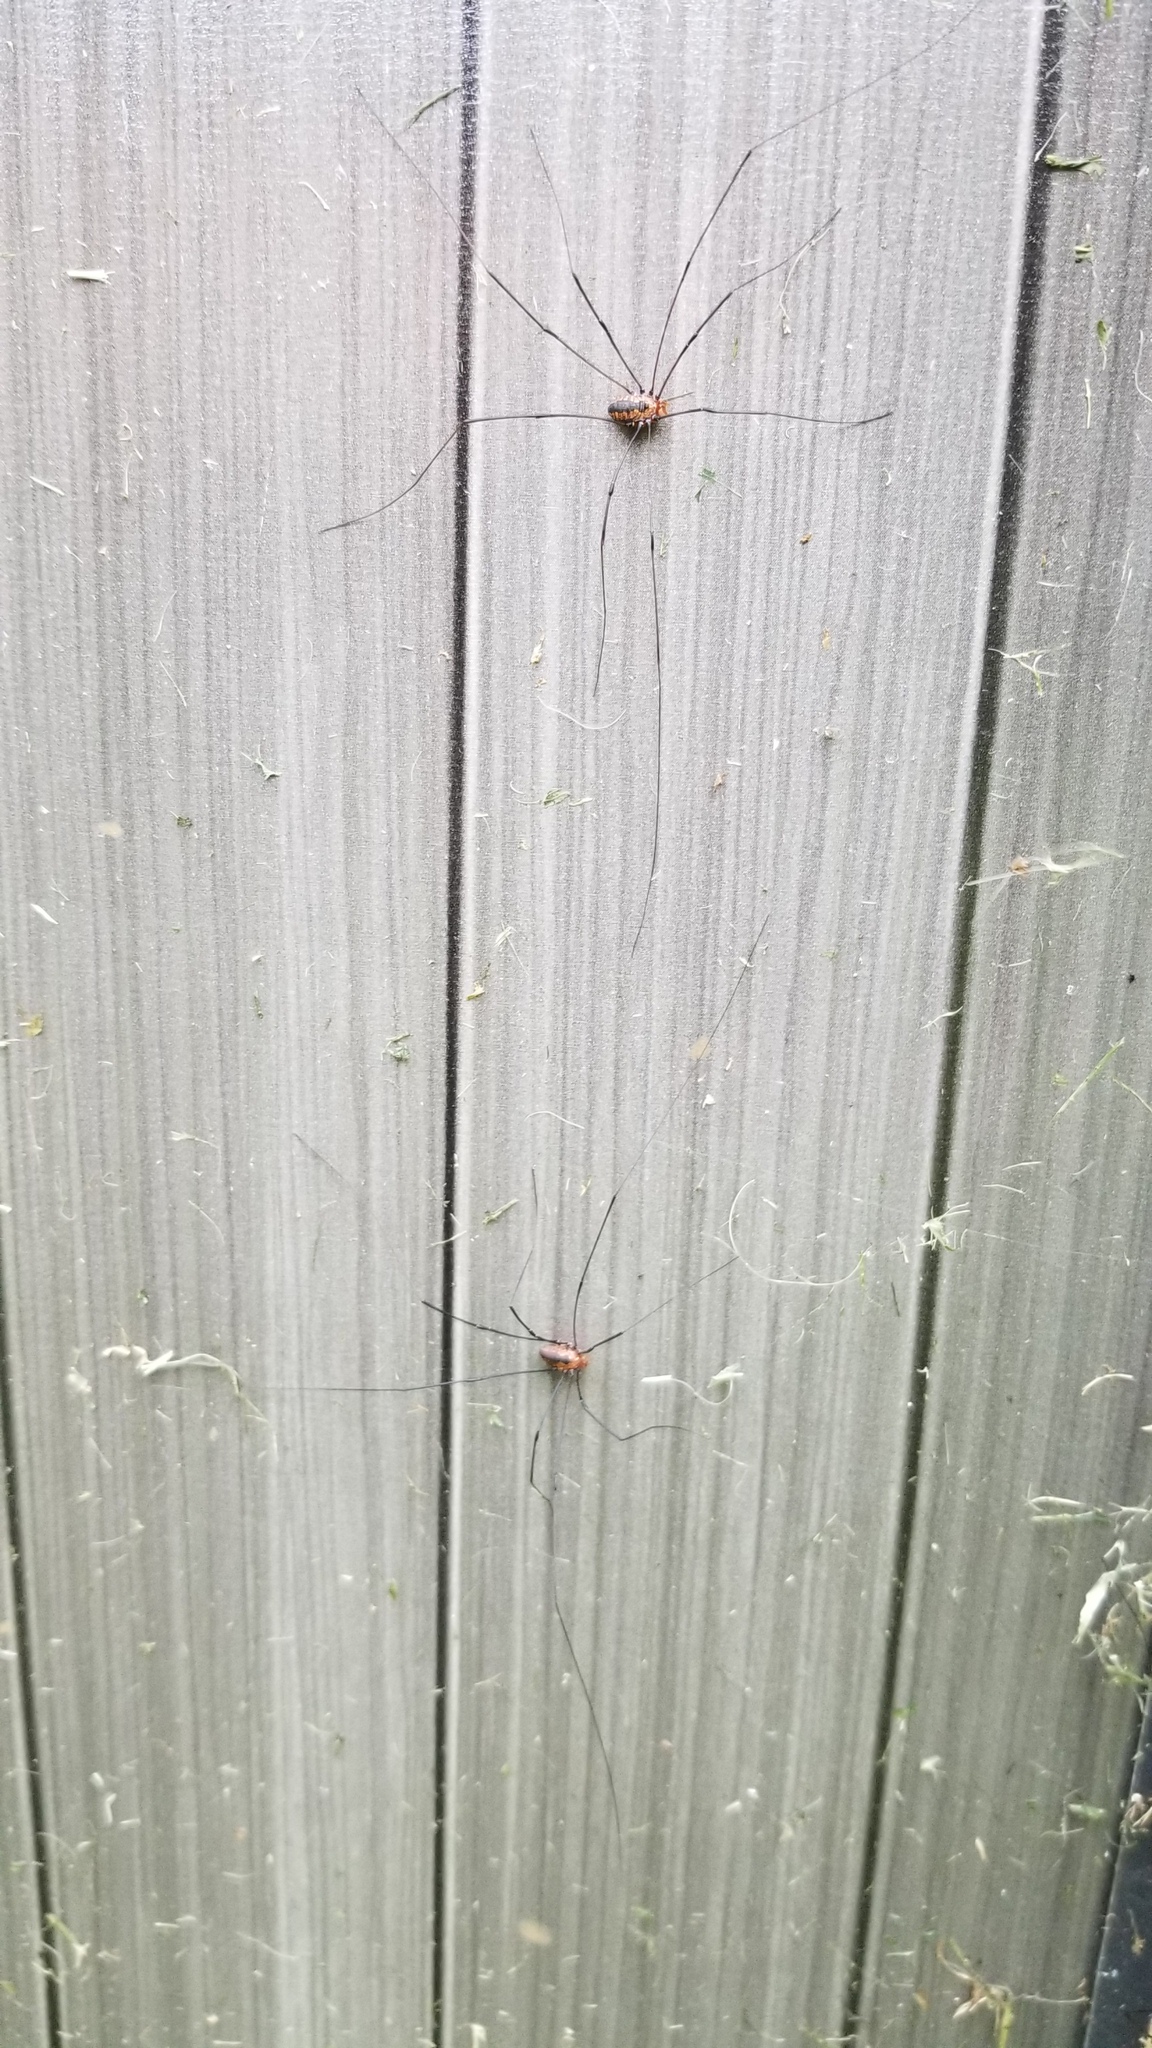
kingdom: Animalia
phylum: Arthropoda
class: Arachnida
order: Opiliones
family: Sclerosomatidae
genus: Leiobunum
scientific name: Leiobunum vittatum
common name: Eastern harvestman
